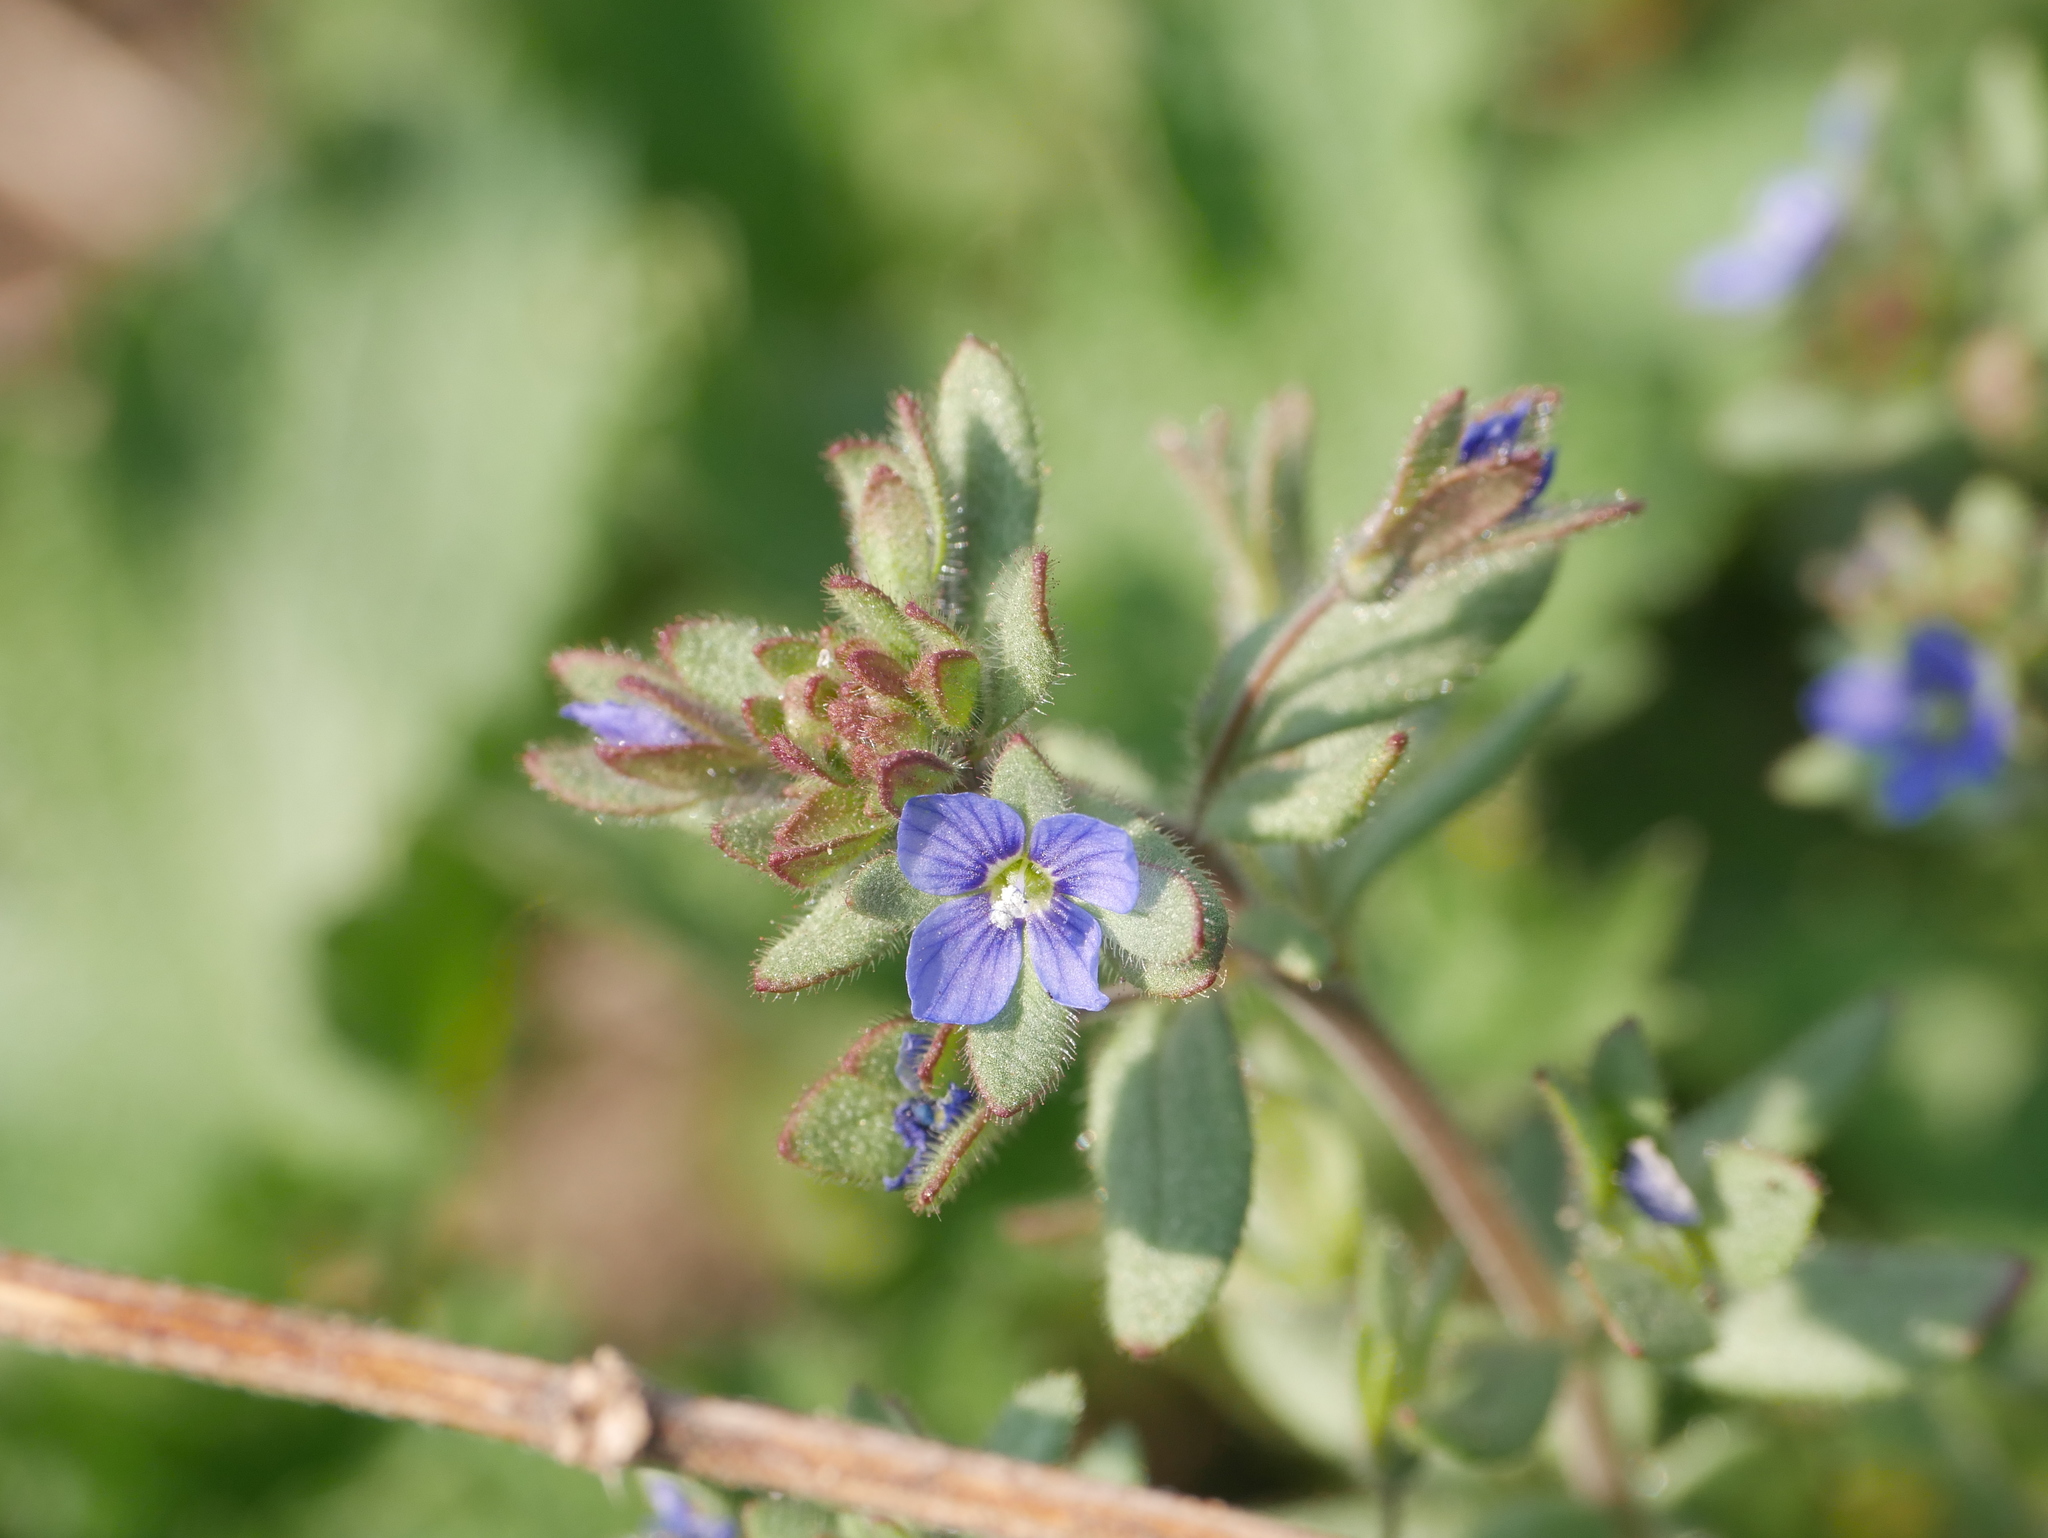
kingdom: Plantae
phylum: Tracheophyta
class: Magnoliopsida
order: Lamiales
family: Plantaginaceae
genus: Veronica
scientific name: Veronica triphyllos
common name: Fingered speedwell
